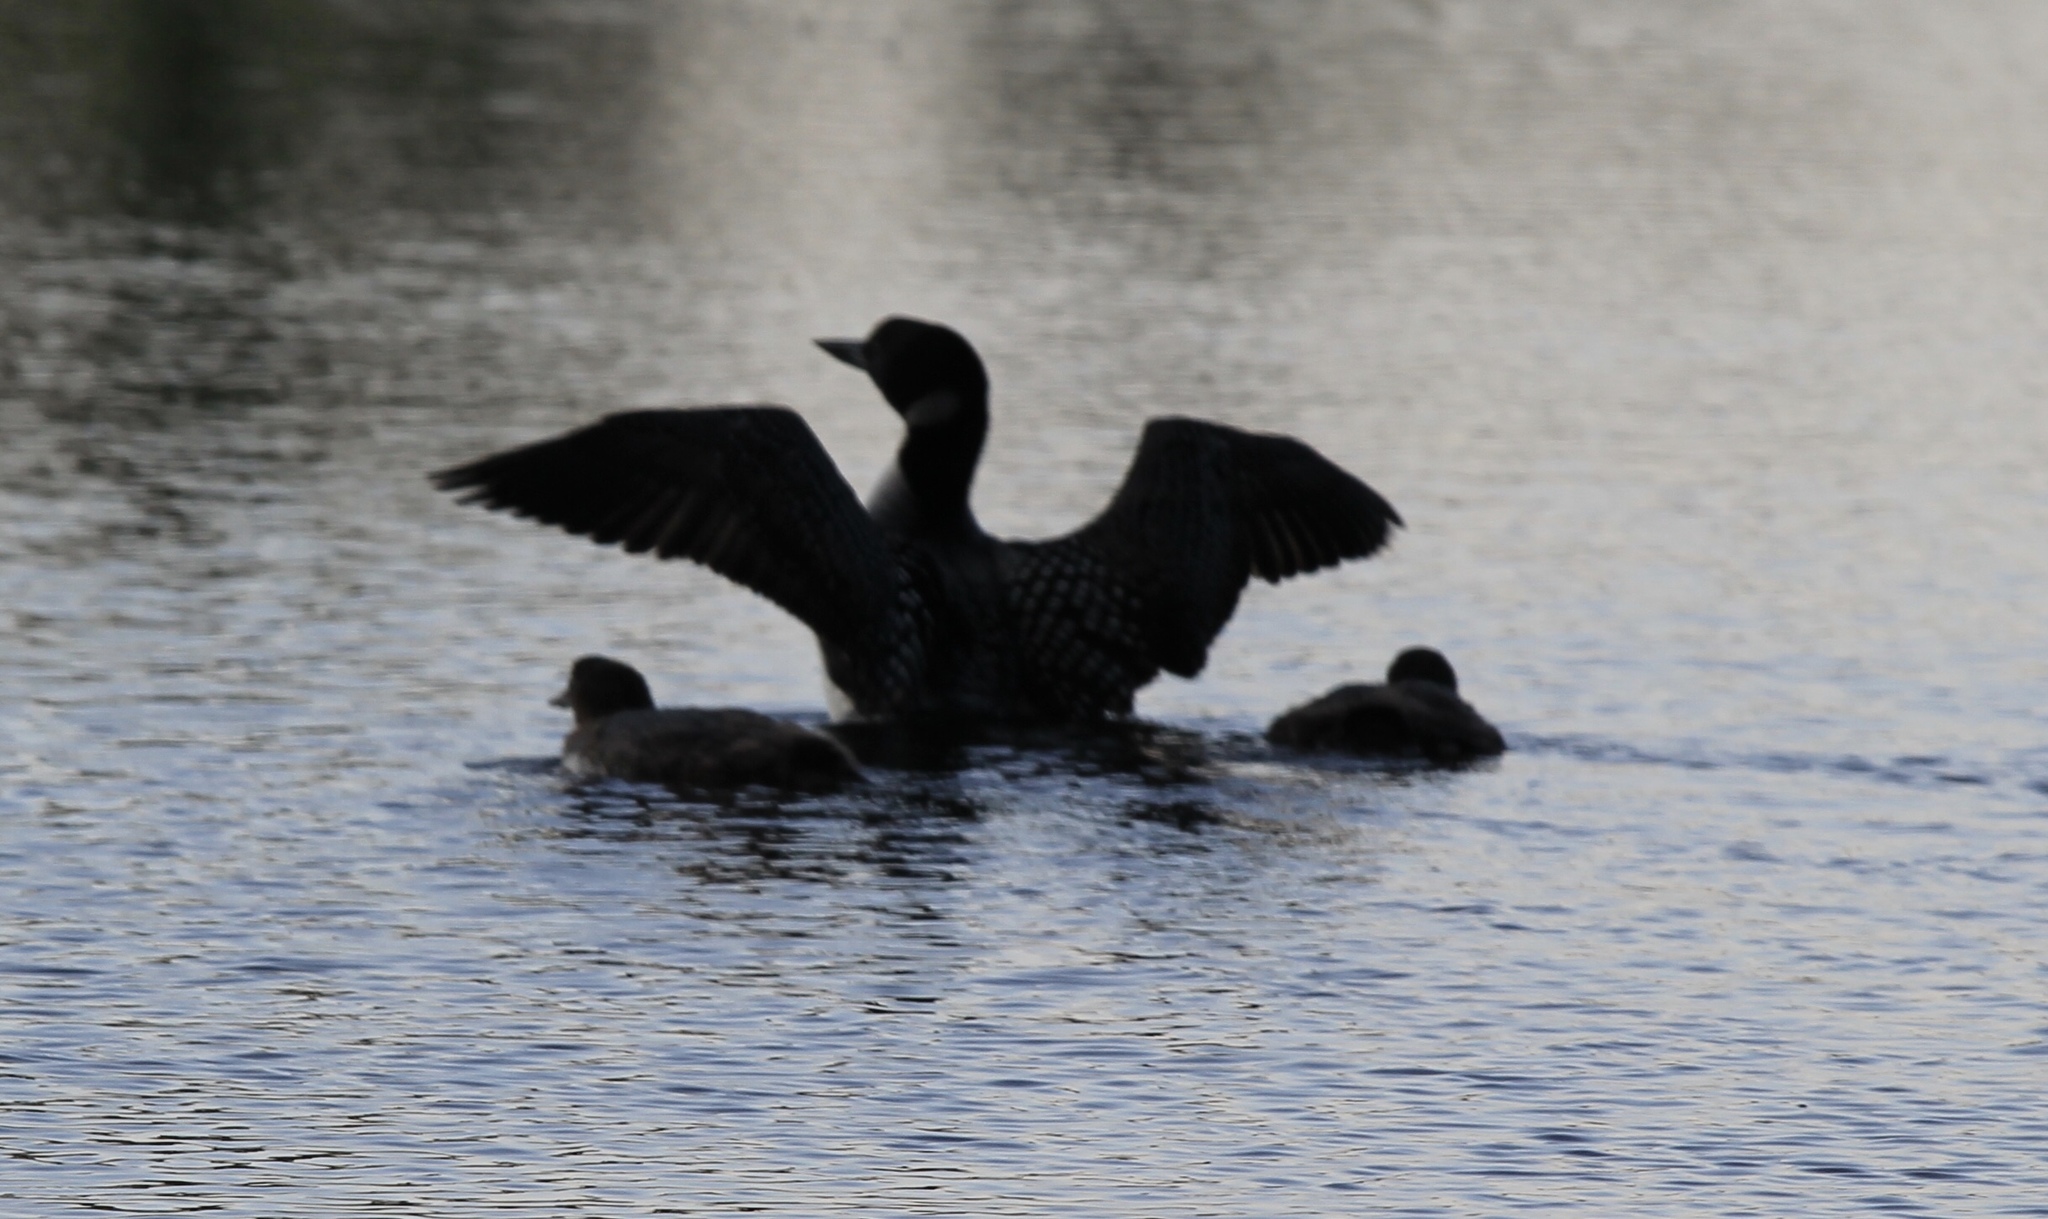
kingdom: Animalia
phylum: Chordata
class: Aves
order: Gaviiformes
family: Gaviidae
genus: Gavia
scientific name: Gavia immer
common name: Common loon
